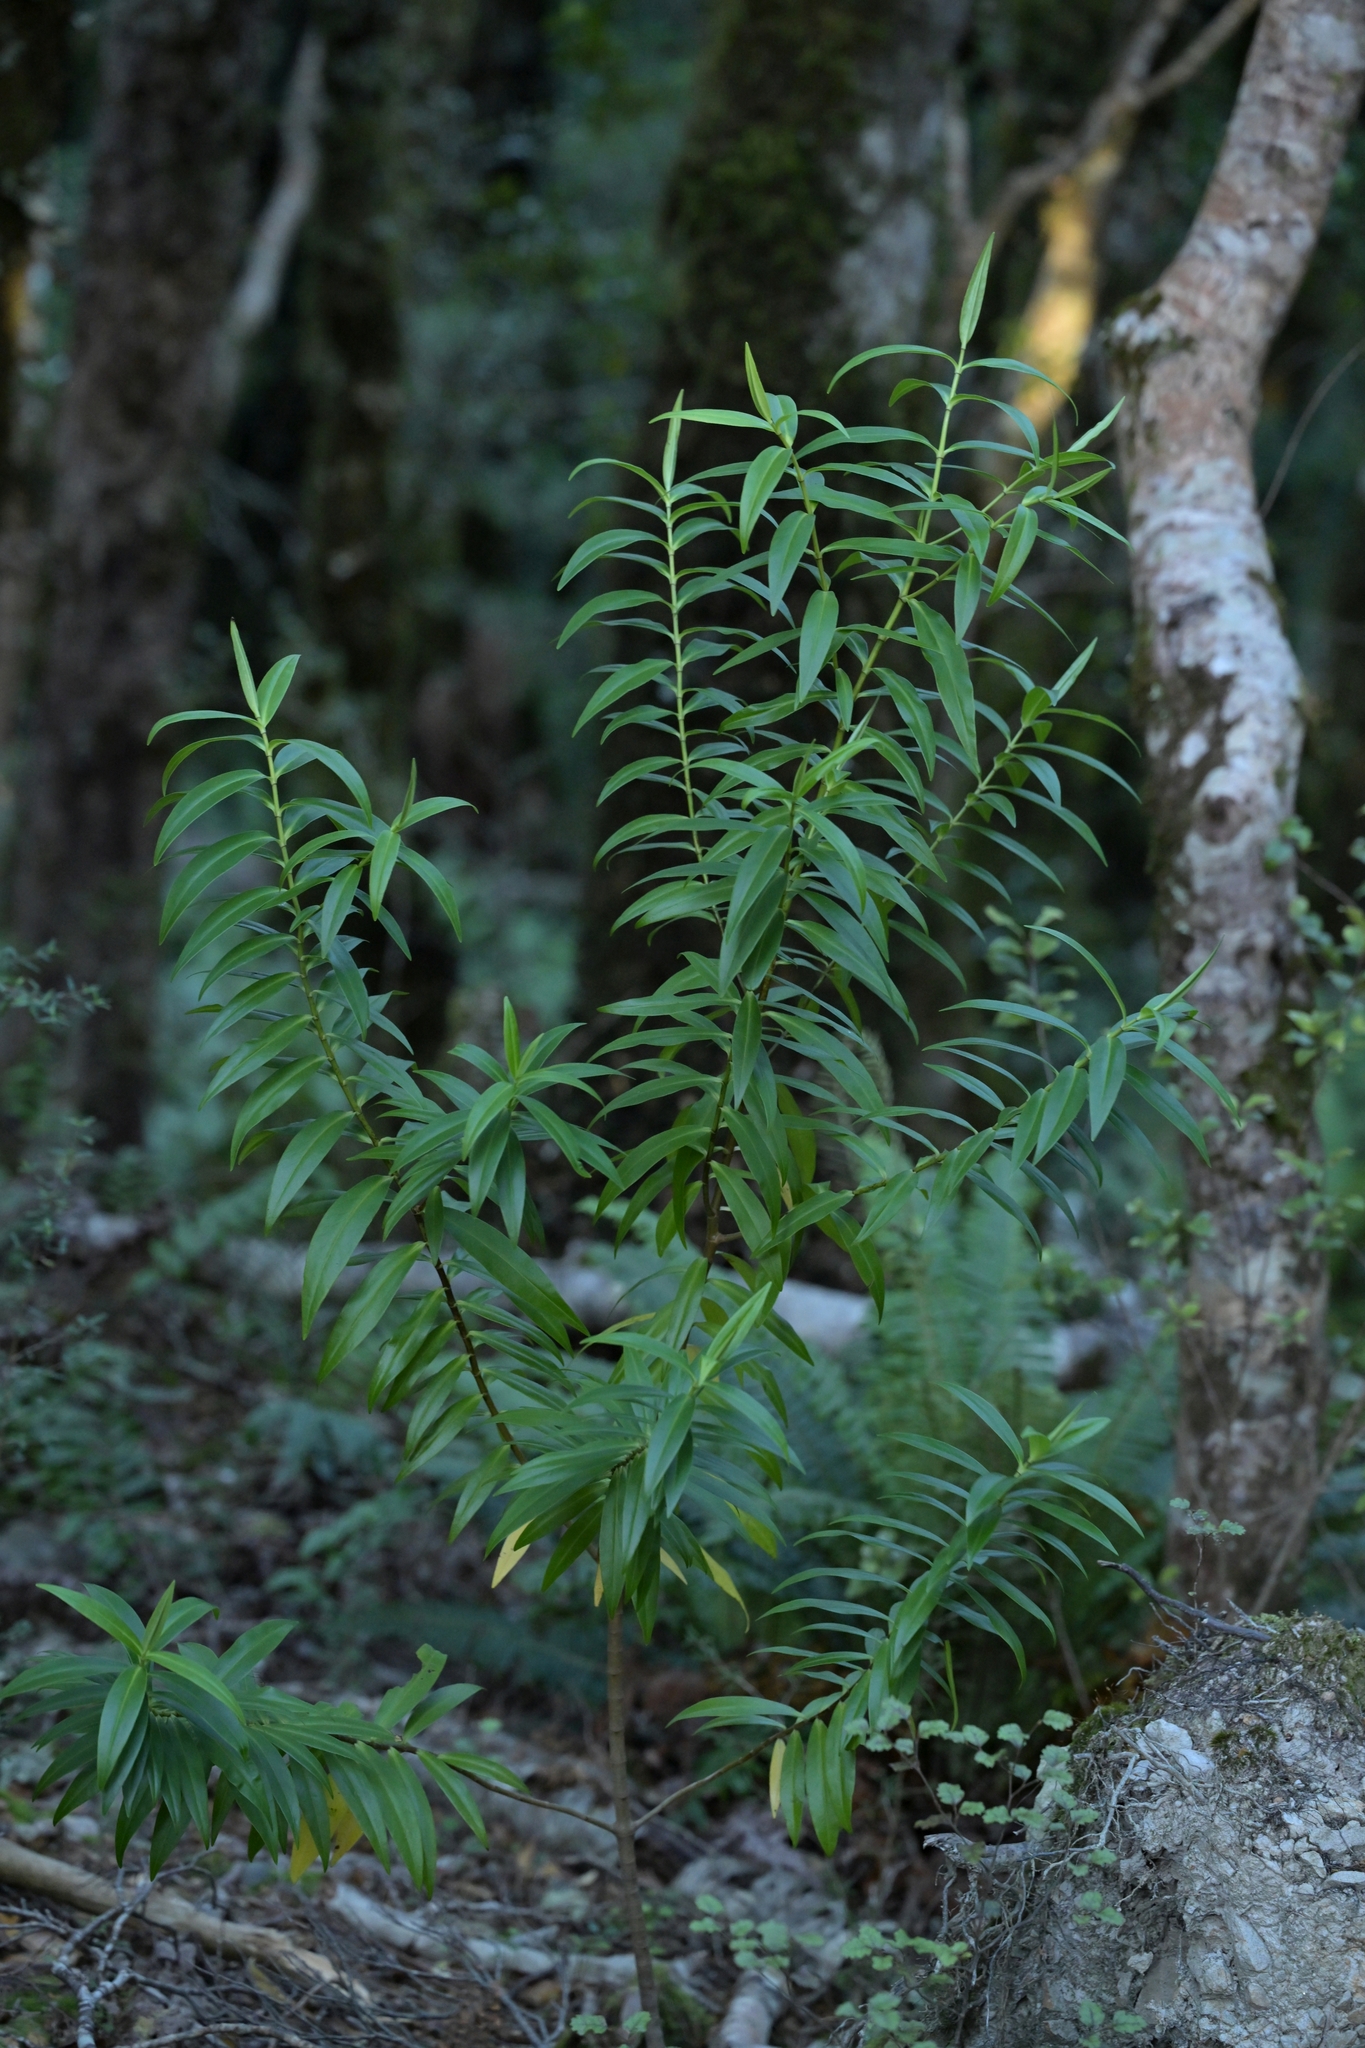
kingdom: Plantae
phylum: Tracheophyta
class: Magnoliopsida
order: Lamiales
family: Plantaginaceae
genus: Veronica
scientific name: Veronica stricta
